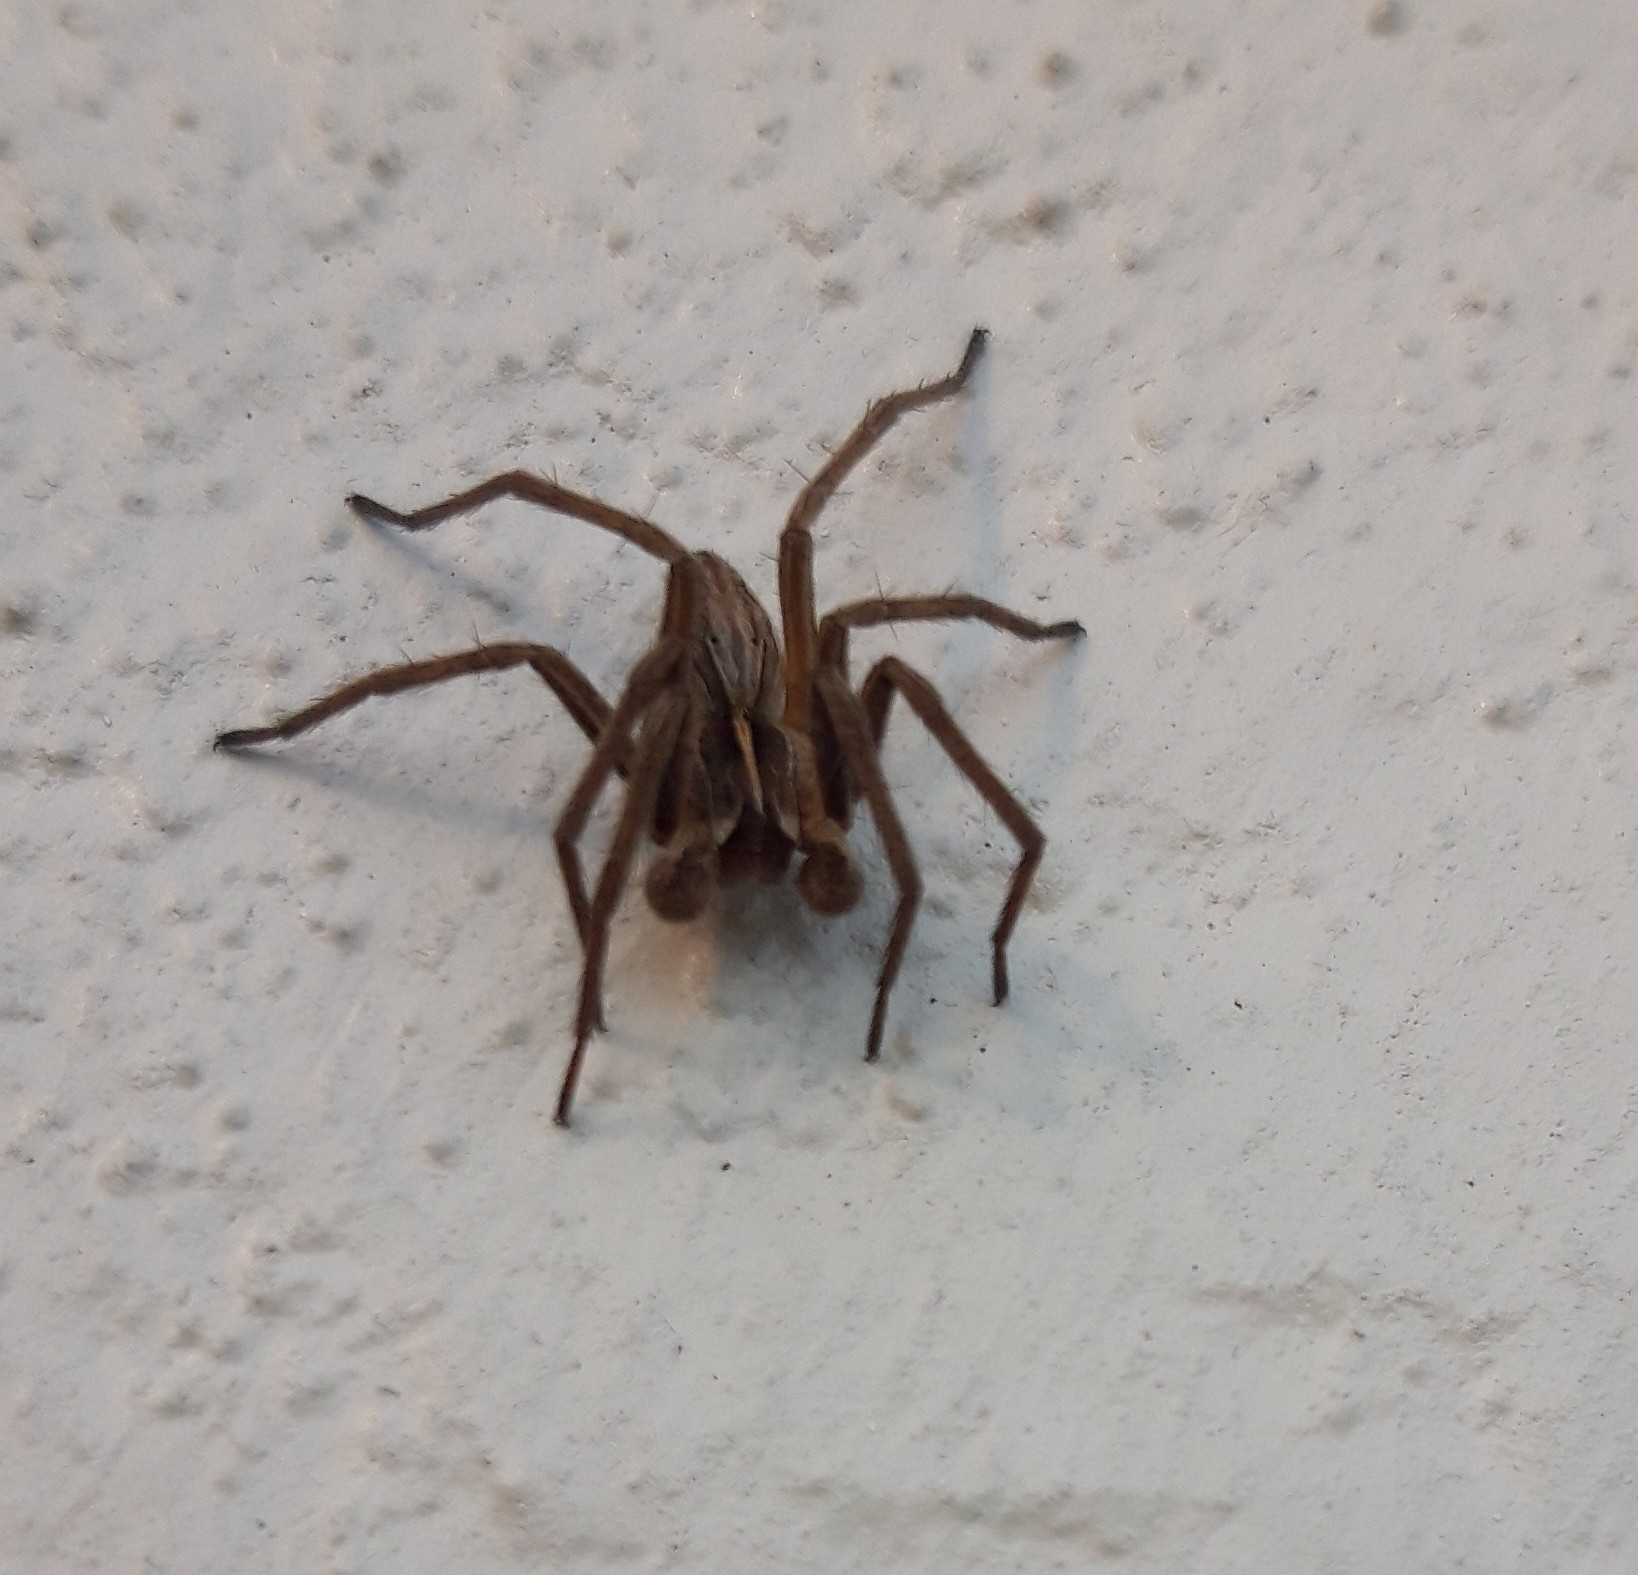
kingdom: Animalia
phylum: Arthropoda
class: Arachnida
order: Araneae
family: Pisauridae
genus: Pisaura
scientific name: Pisaura mirabilis
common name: Tent spider
